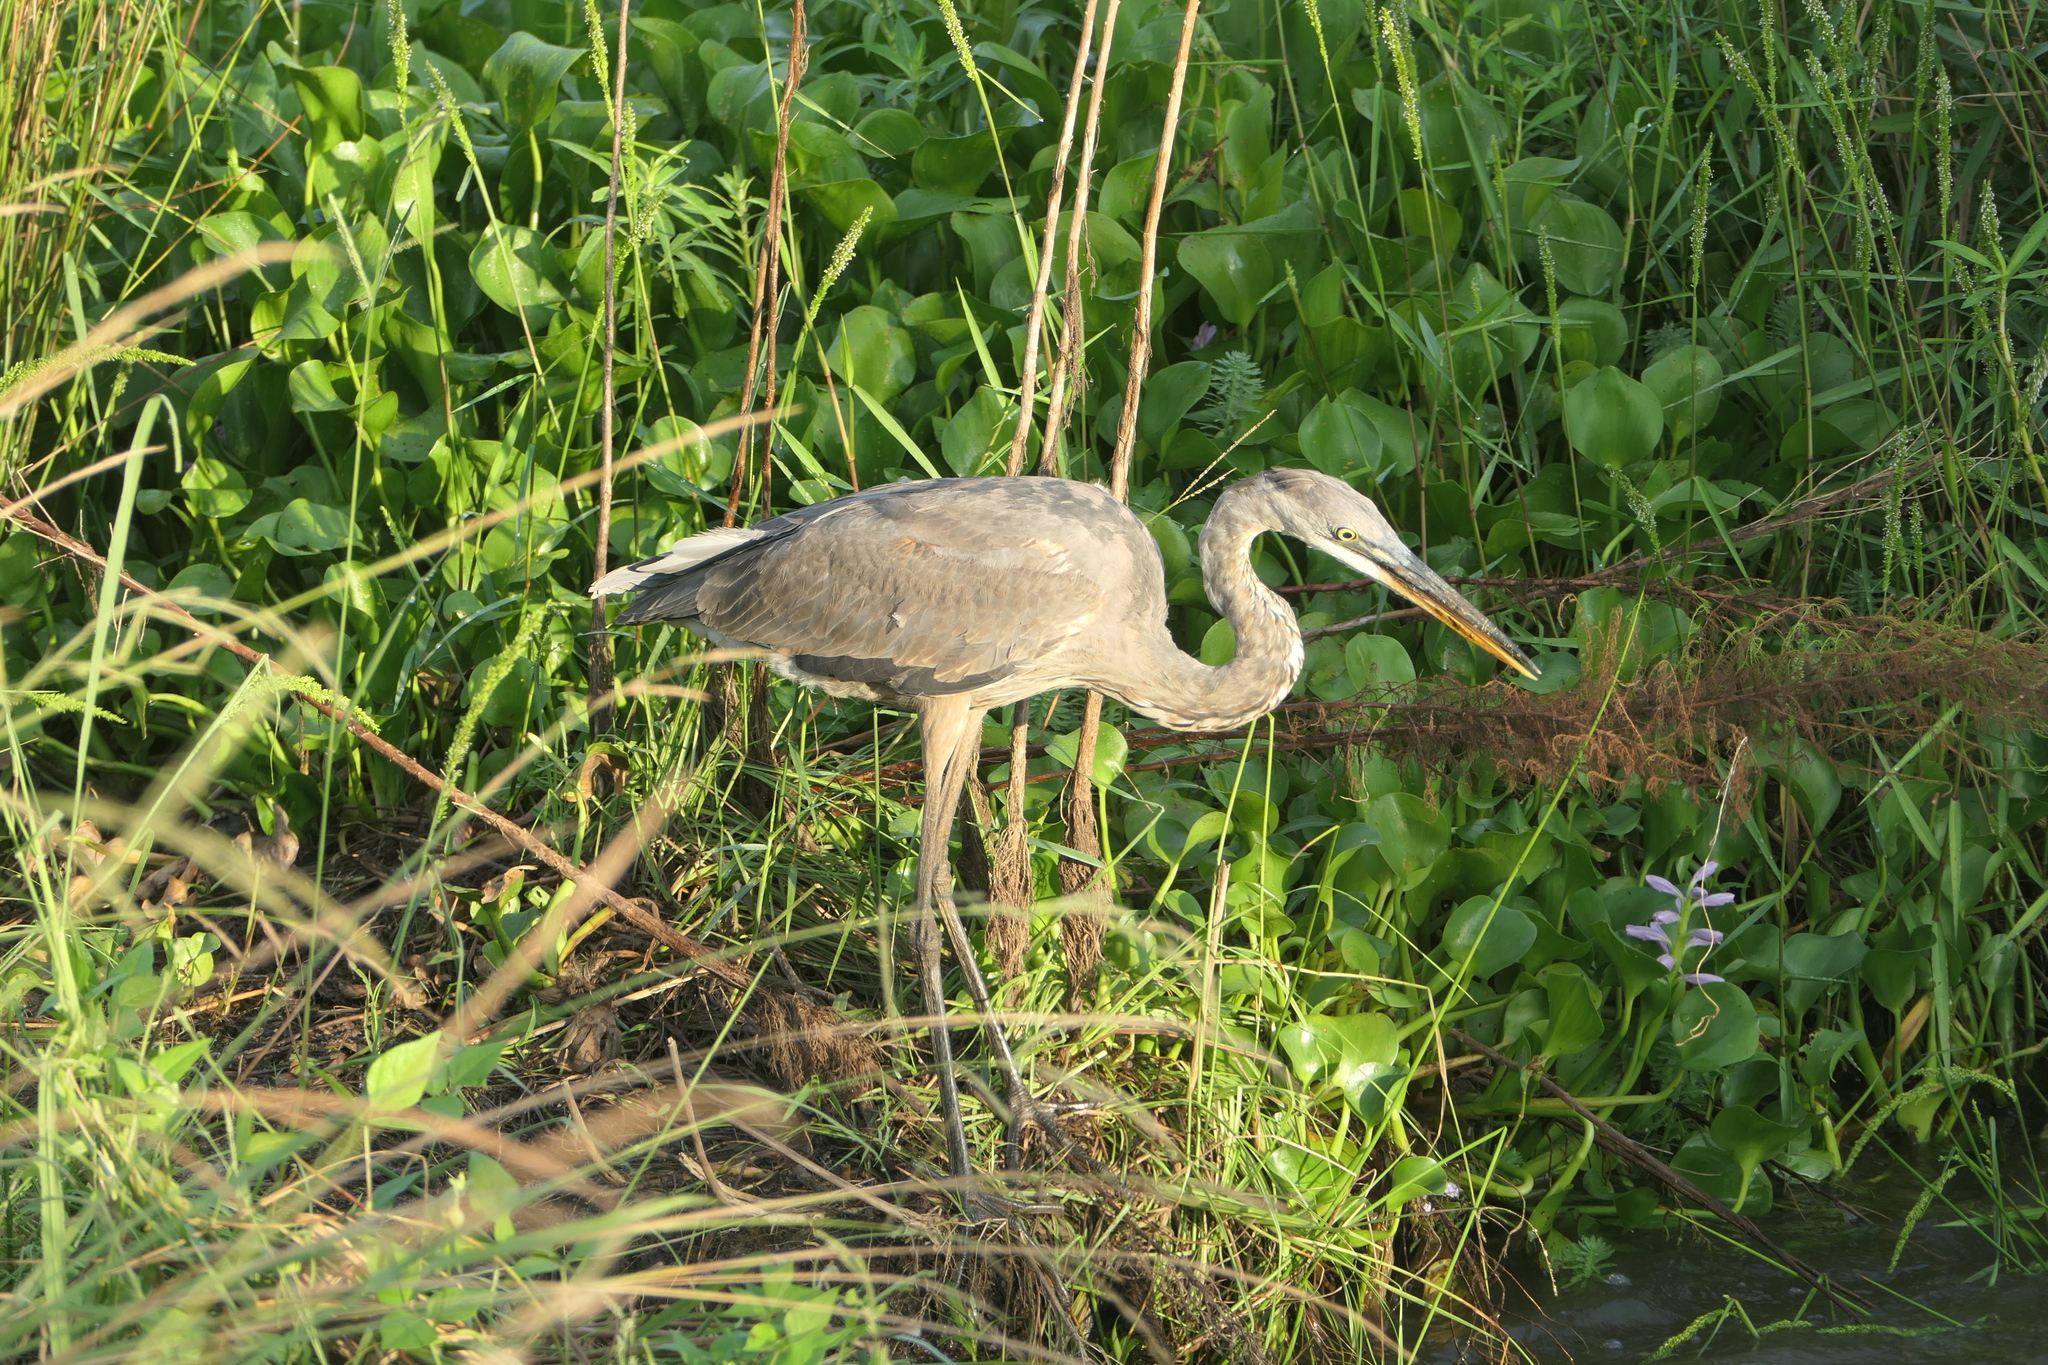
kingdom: Animalia
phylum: Chordata
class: Aves
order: Pelecaniformes
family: Ardeidae
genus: Ardea
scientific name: Ardea herodias
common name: Great blue heron
